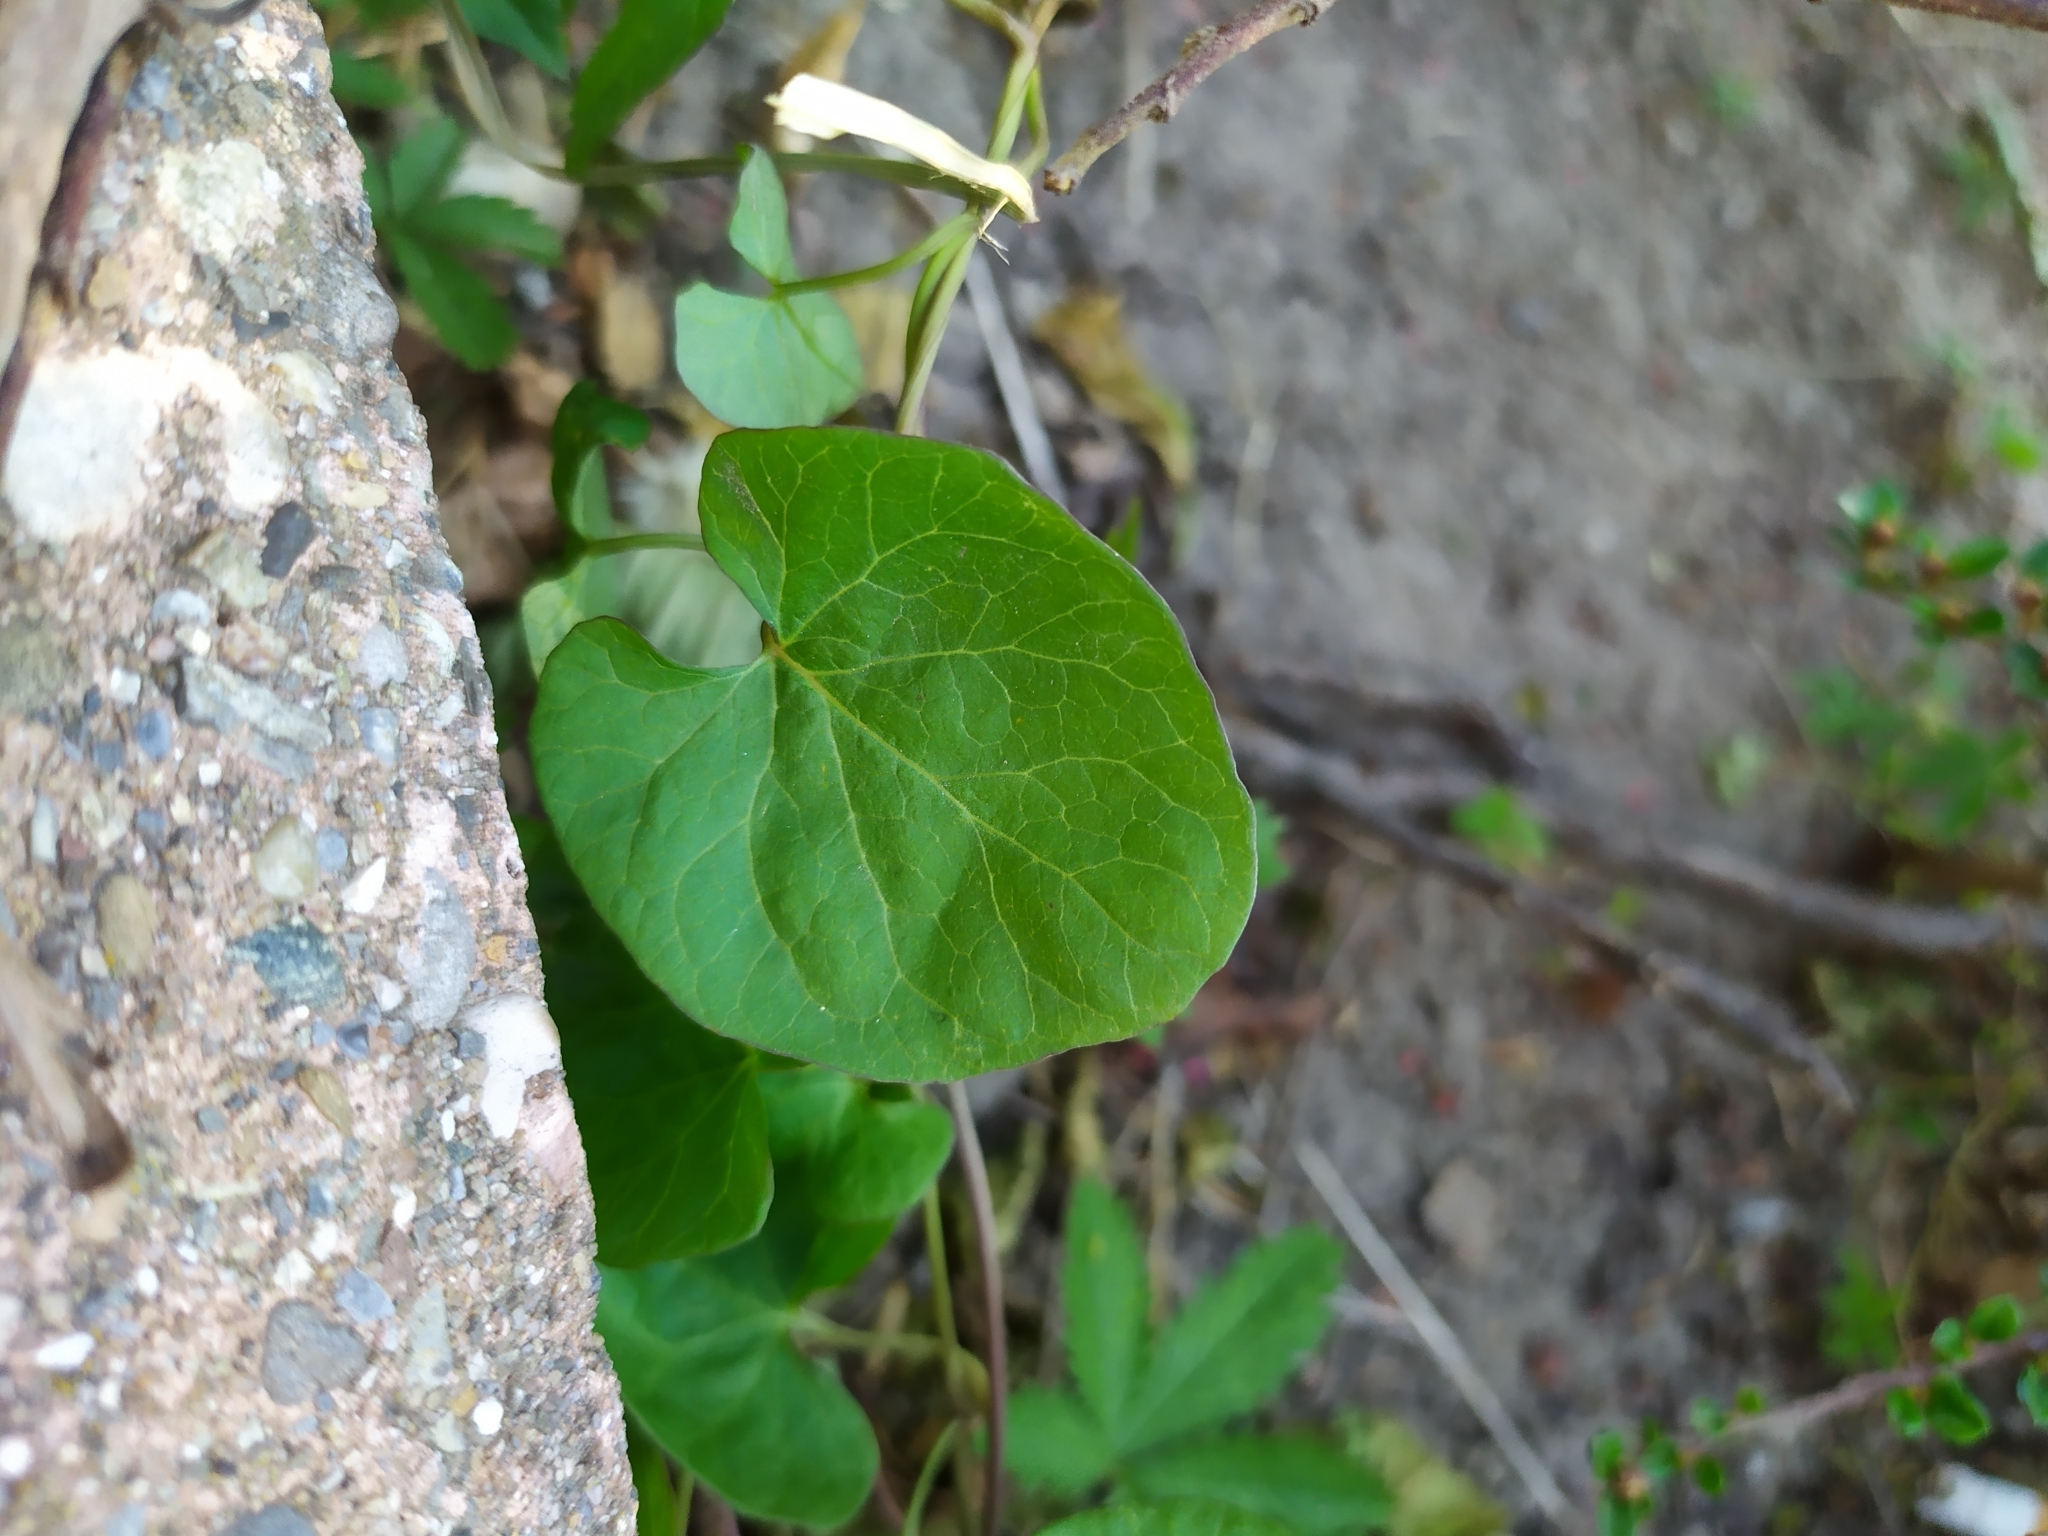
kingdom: Plantae
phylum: Tracheophyta
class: Magnoliopsida
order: Solanales
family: Convolvulaceae
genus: Calystegia
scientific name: Calystegia
